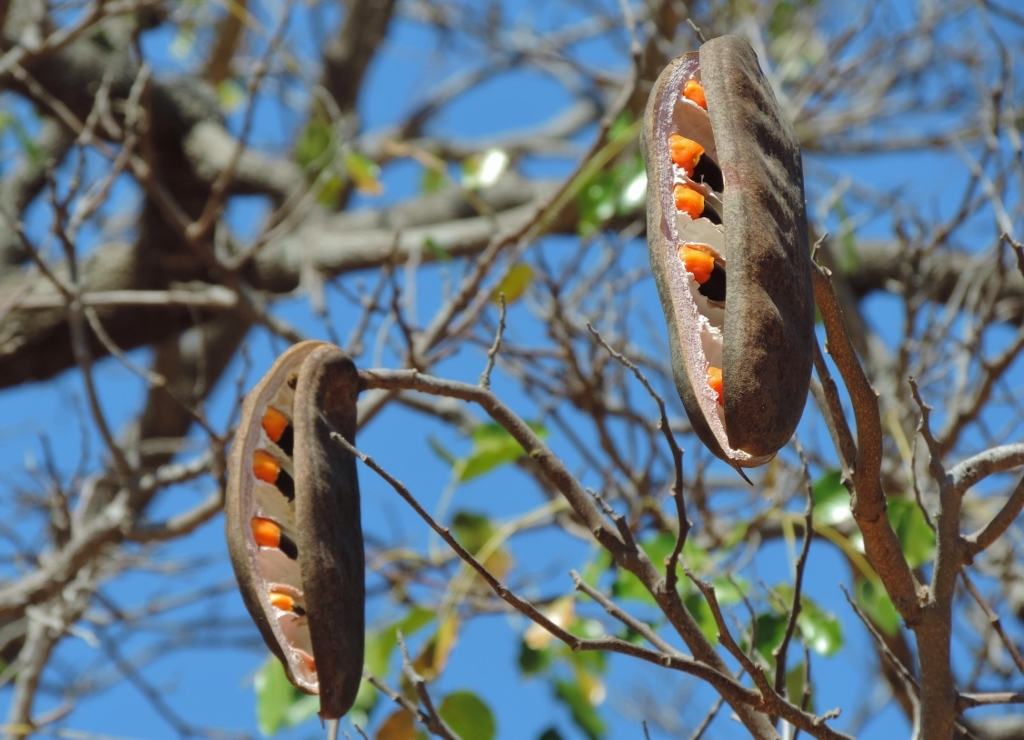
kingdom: Plantae
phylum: Tracheophyta
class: Magnoliopsida
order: Fabales
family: Fabaceae
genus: Afzelia
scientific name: Afzelia quanzensis
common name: Pod mahogany
